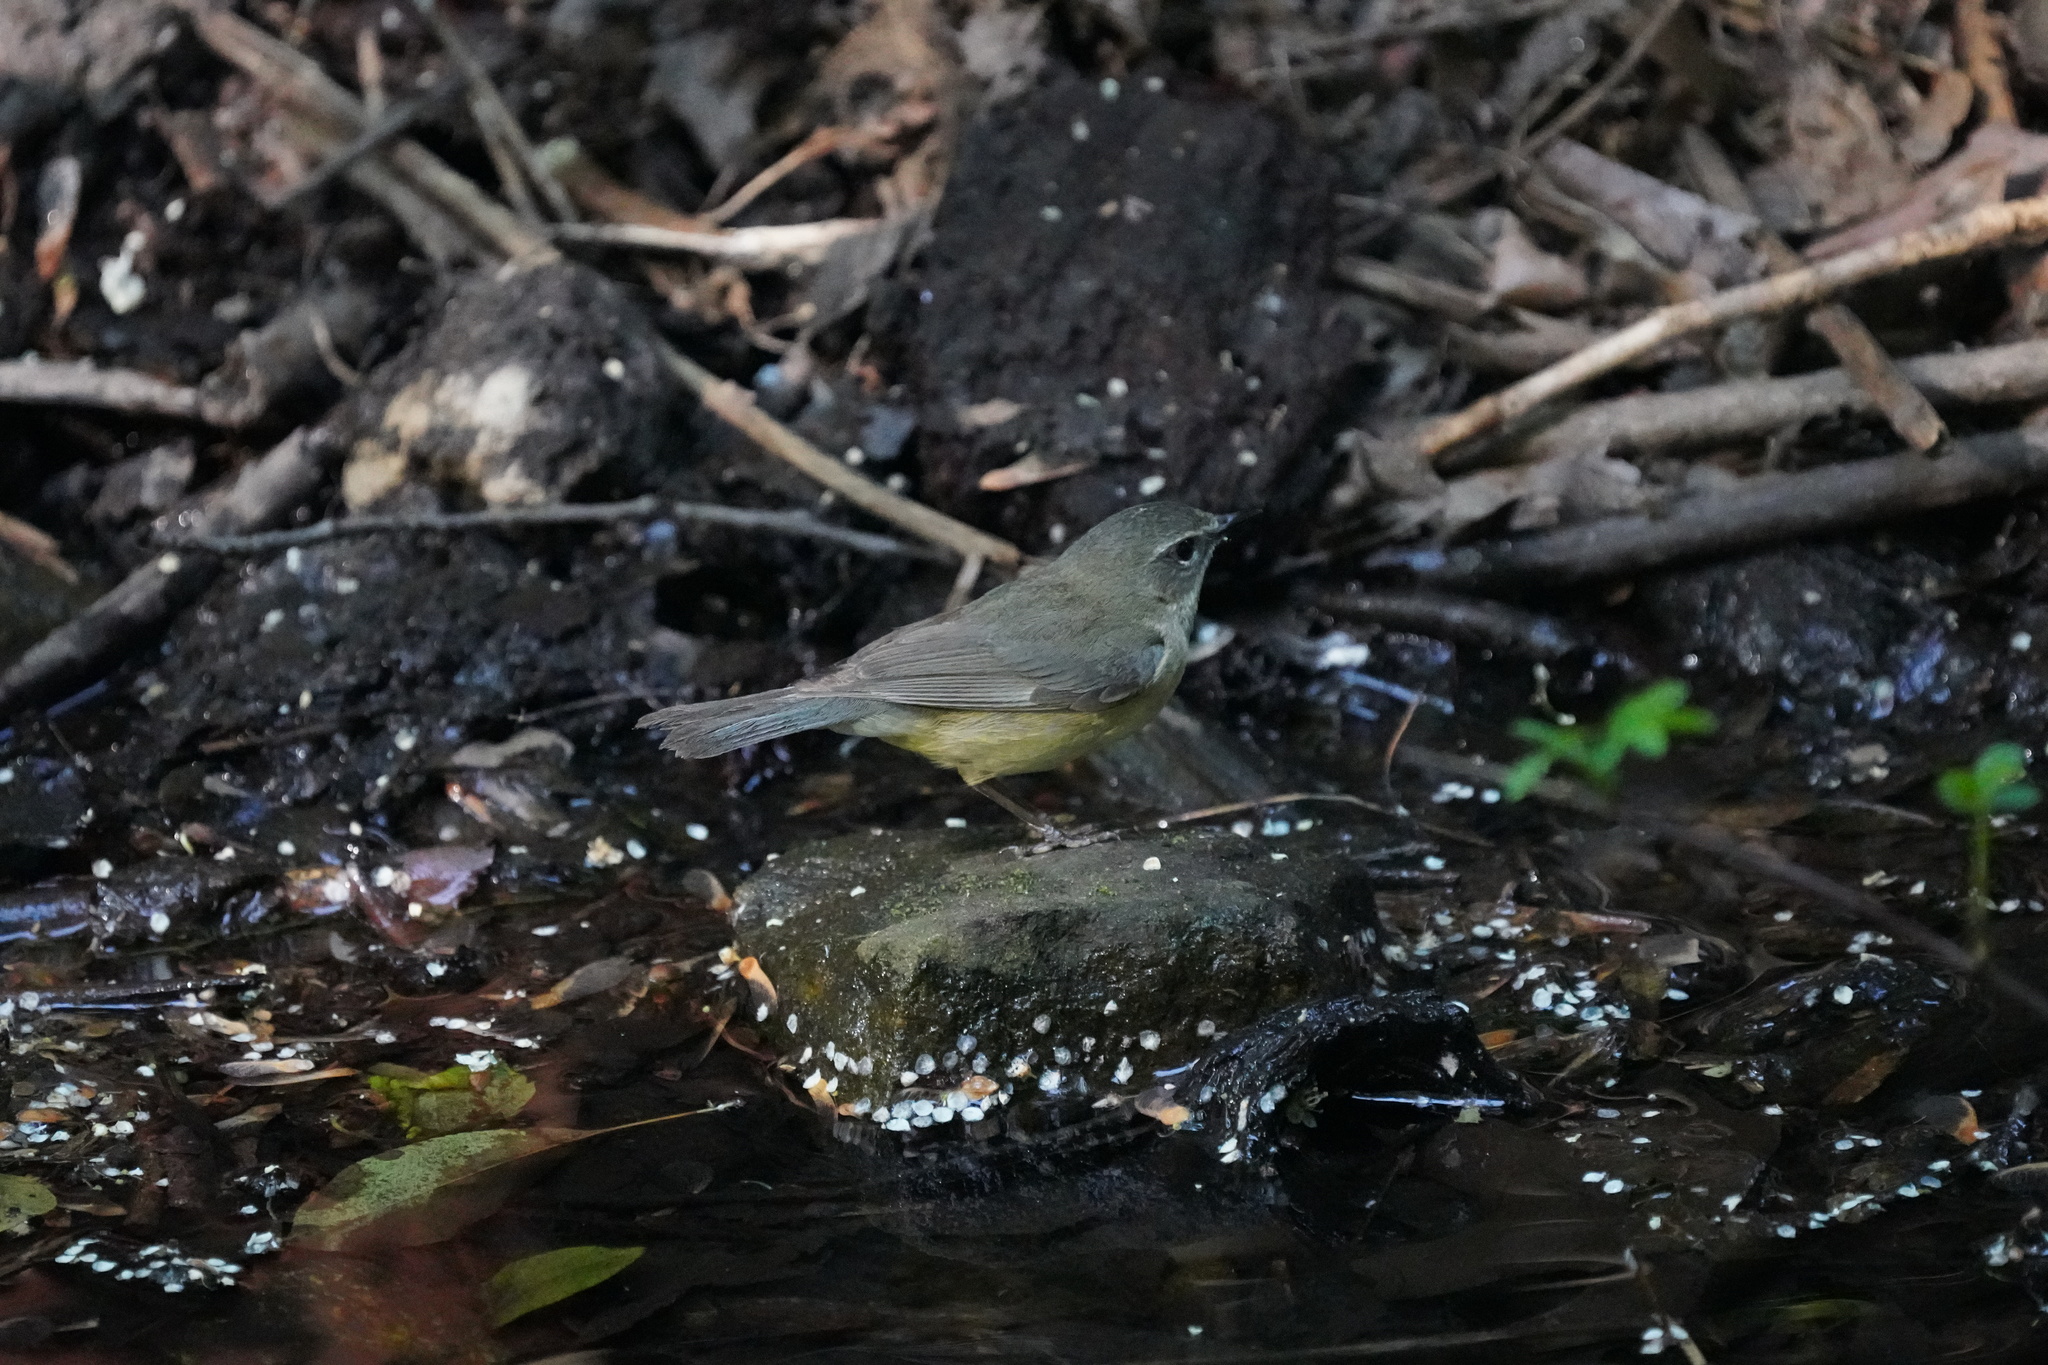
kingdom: Animalia
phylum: Chordata
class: Aves
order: Passeriformes
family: Parulidae
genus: Setophaga
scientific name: Setophaga caerulescens
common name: Black-throated blue warbler
